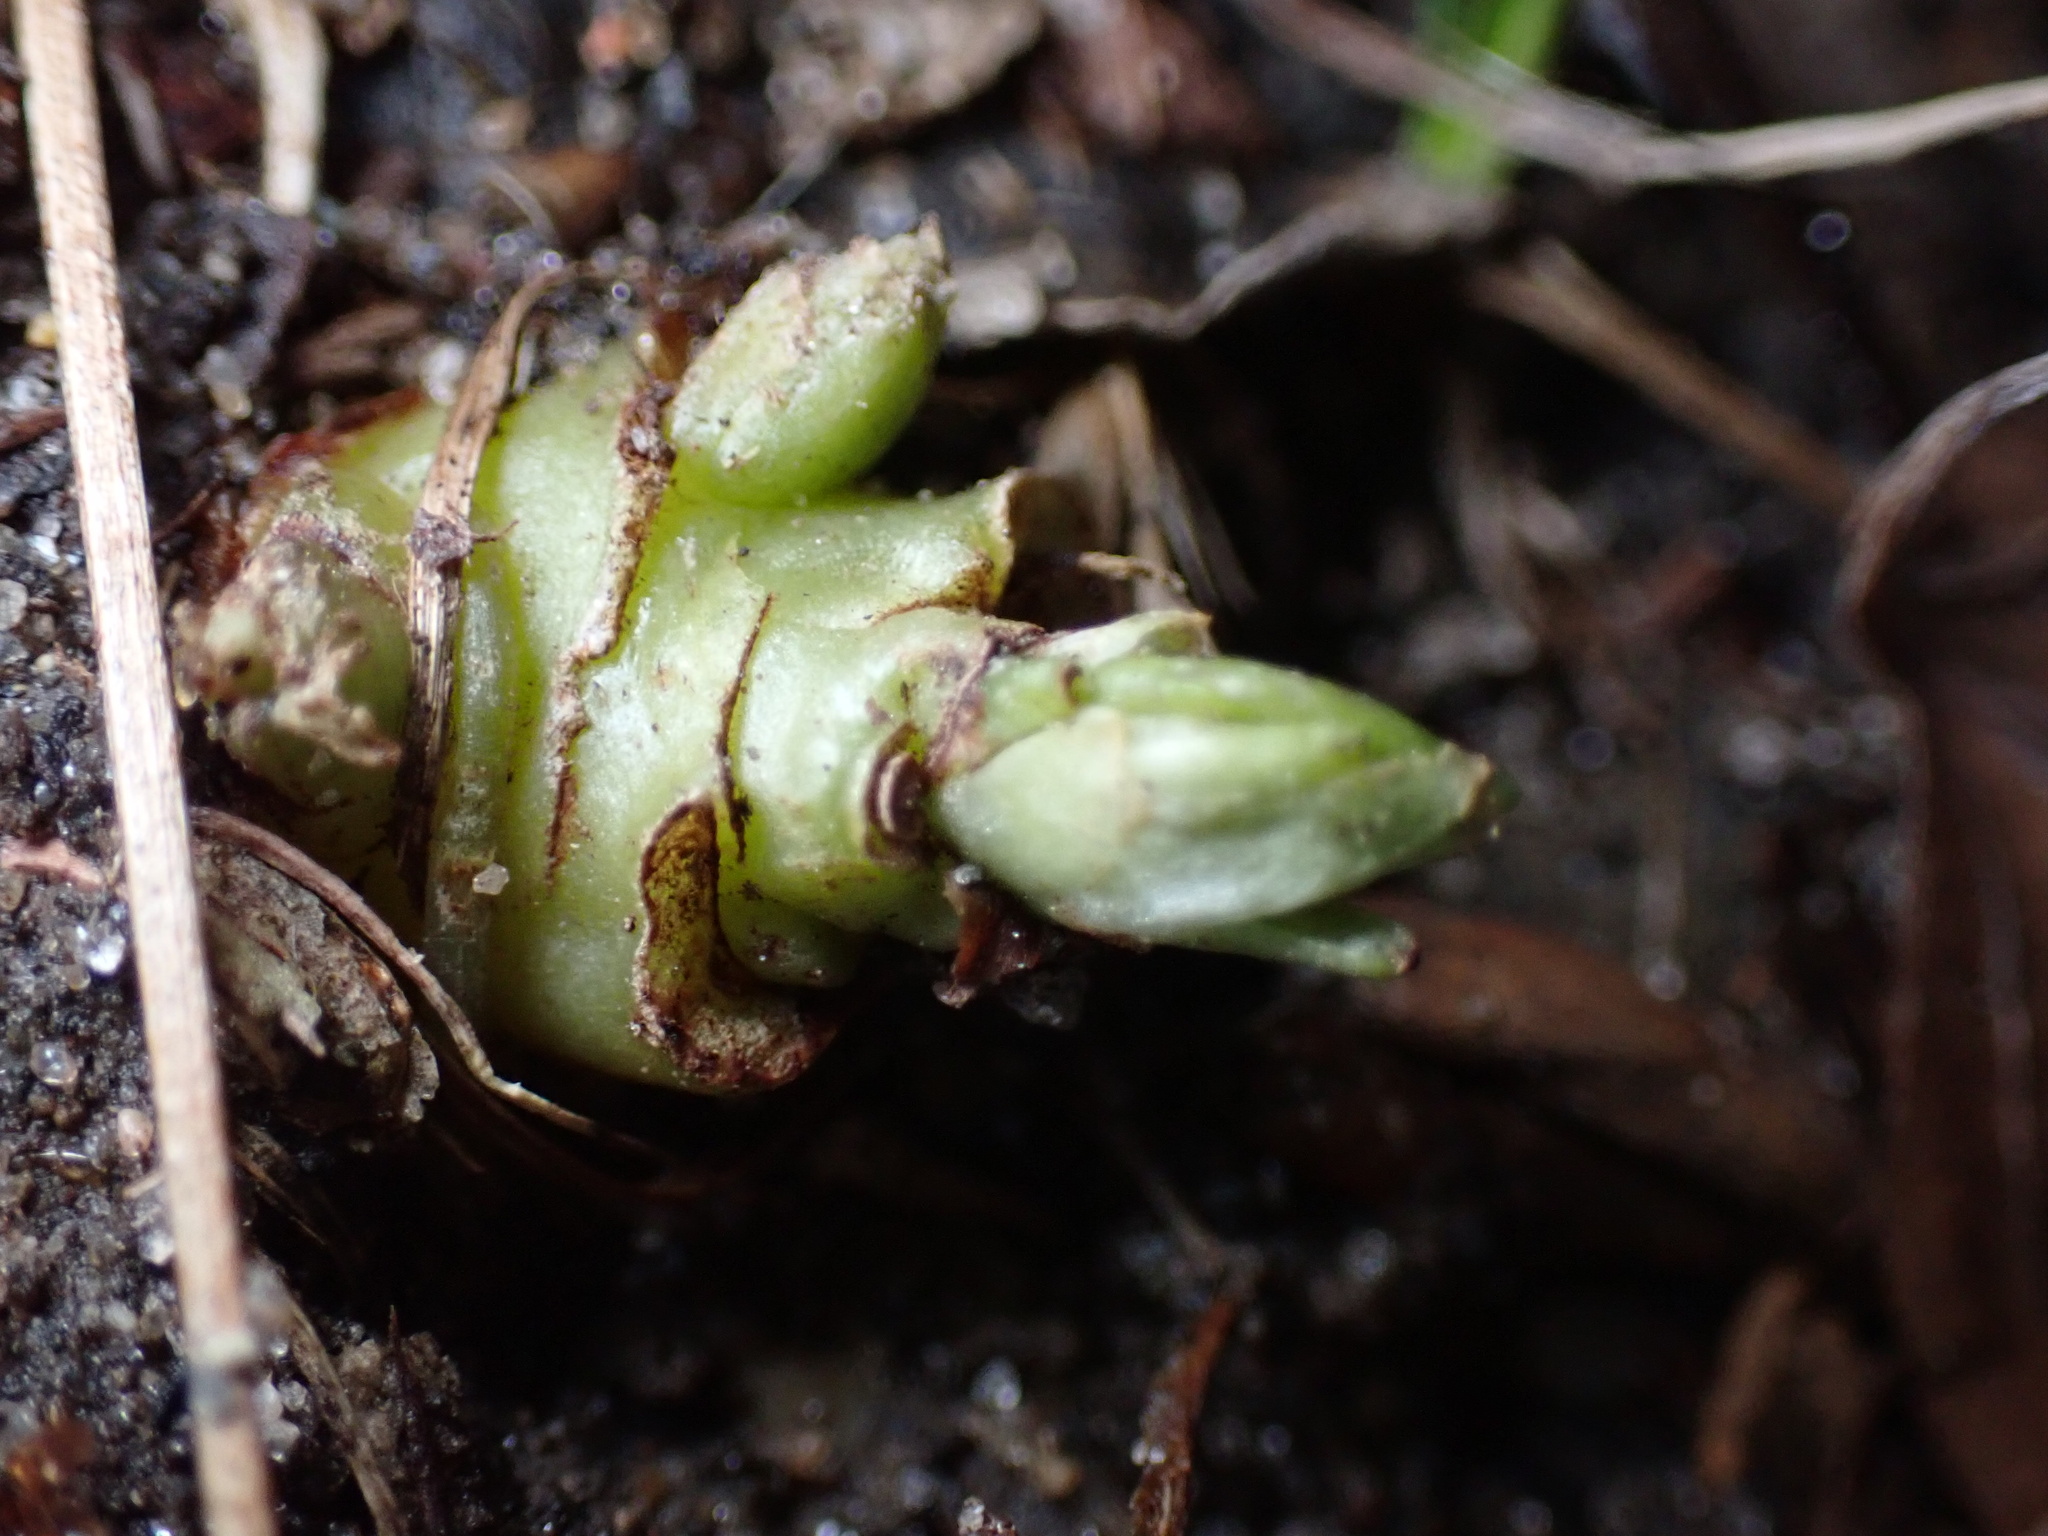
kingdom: Plantae
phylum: Tracheophyta
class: Magnoliopsida
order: Malpighiales
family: Violaceae
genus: Viola
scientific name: Viola sororia
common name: Dooryard violet
